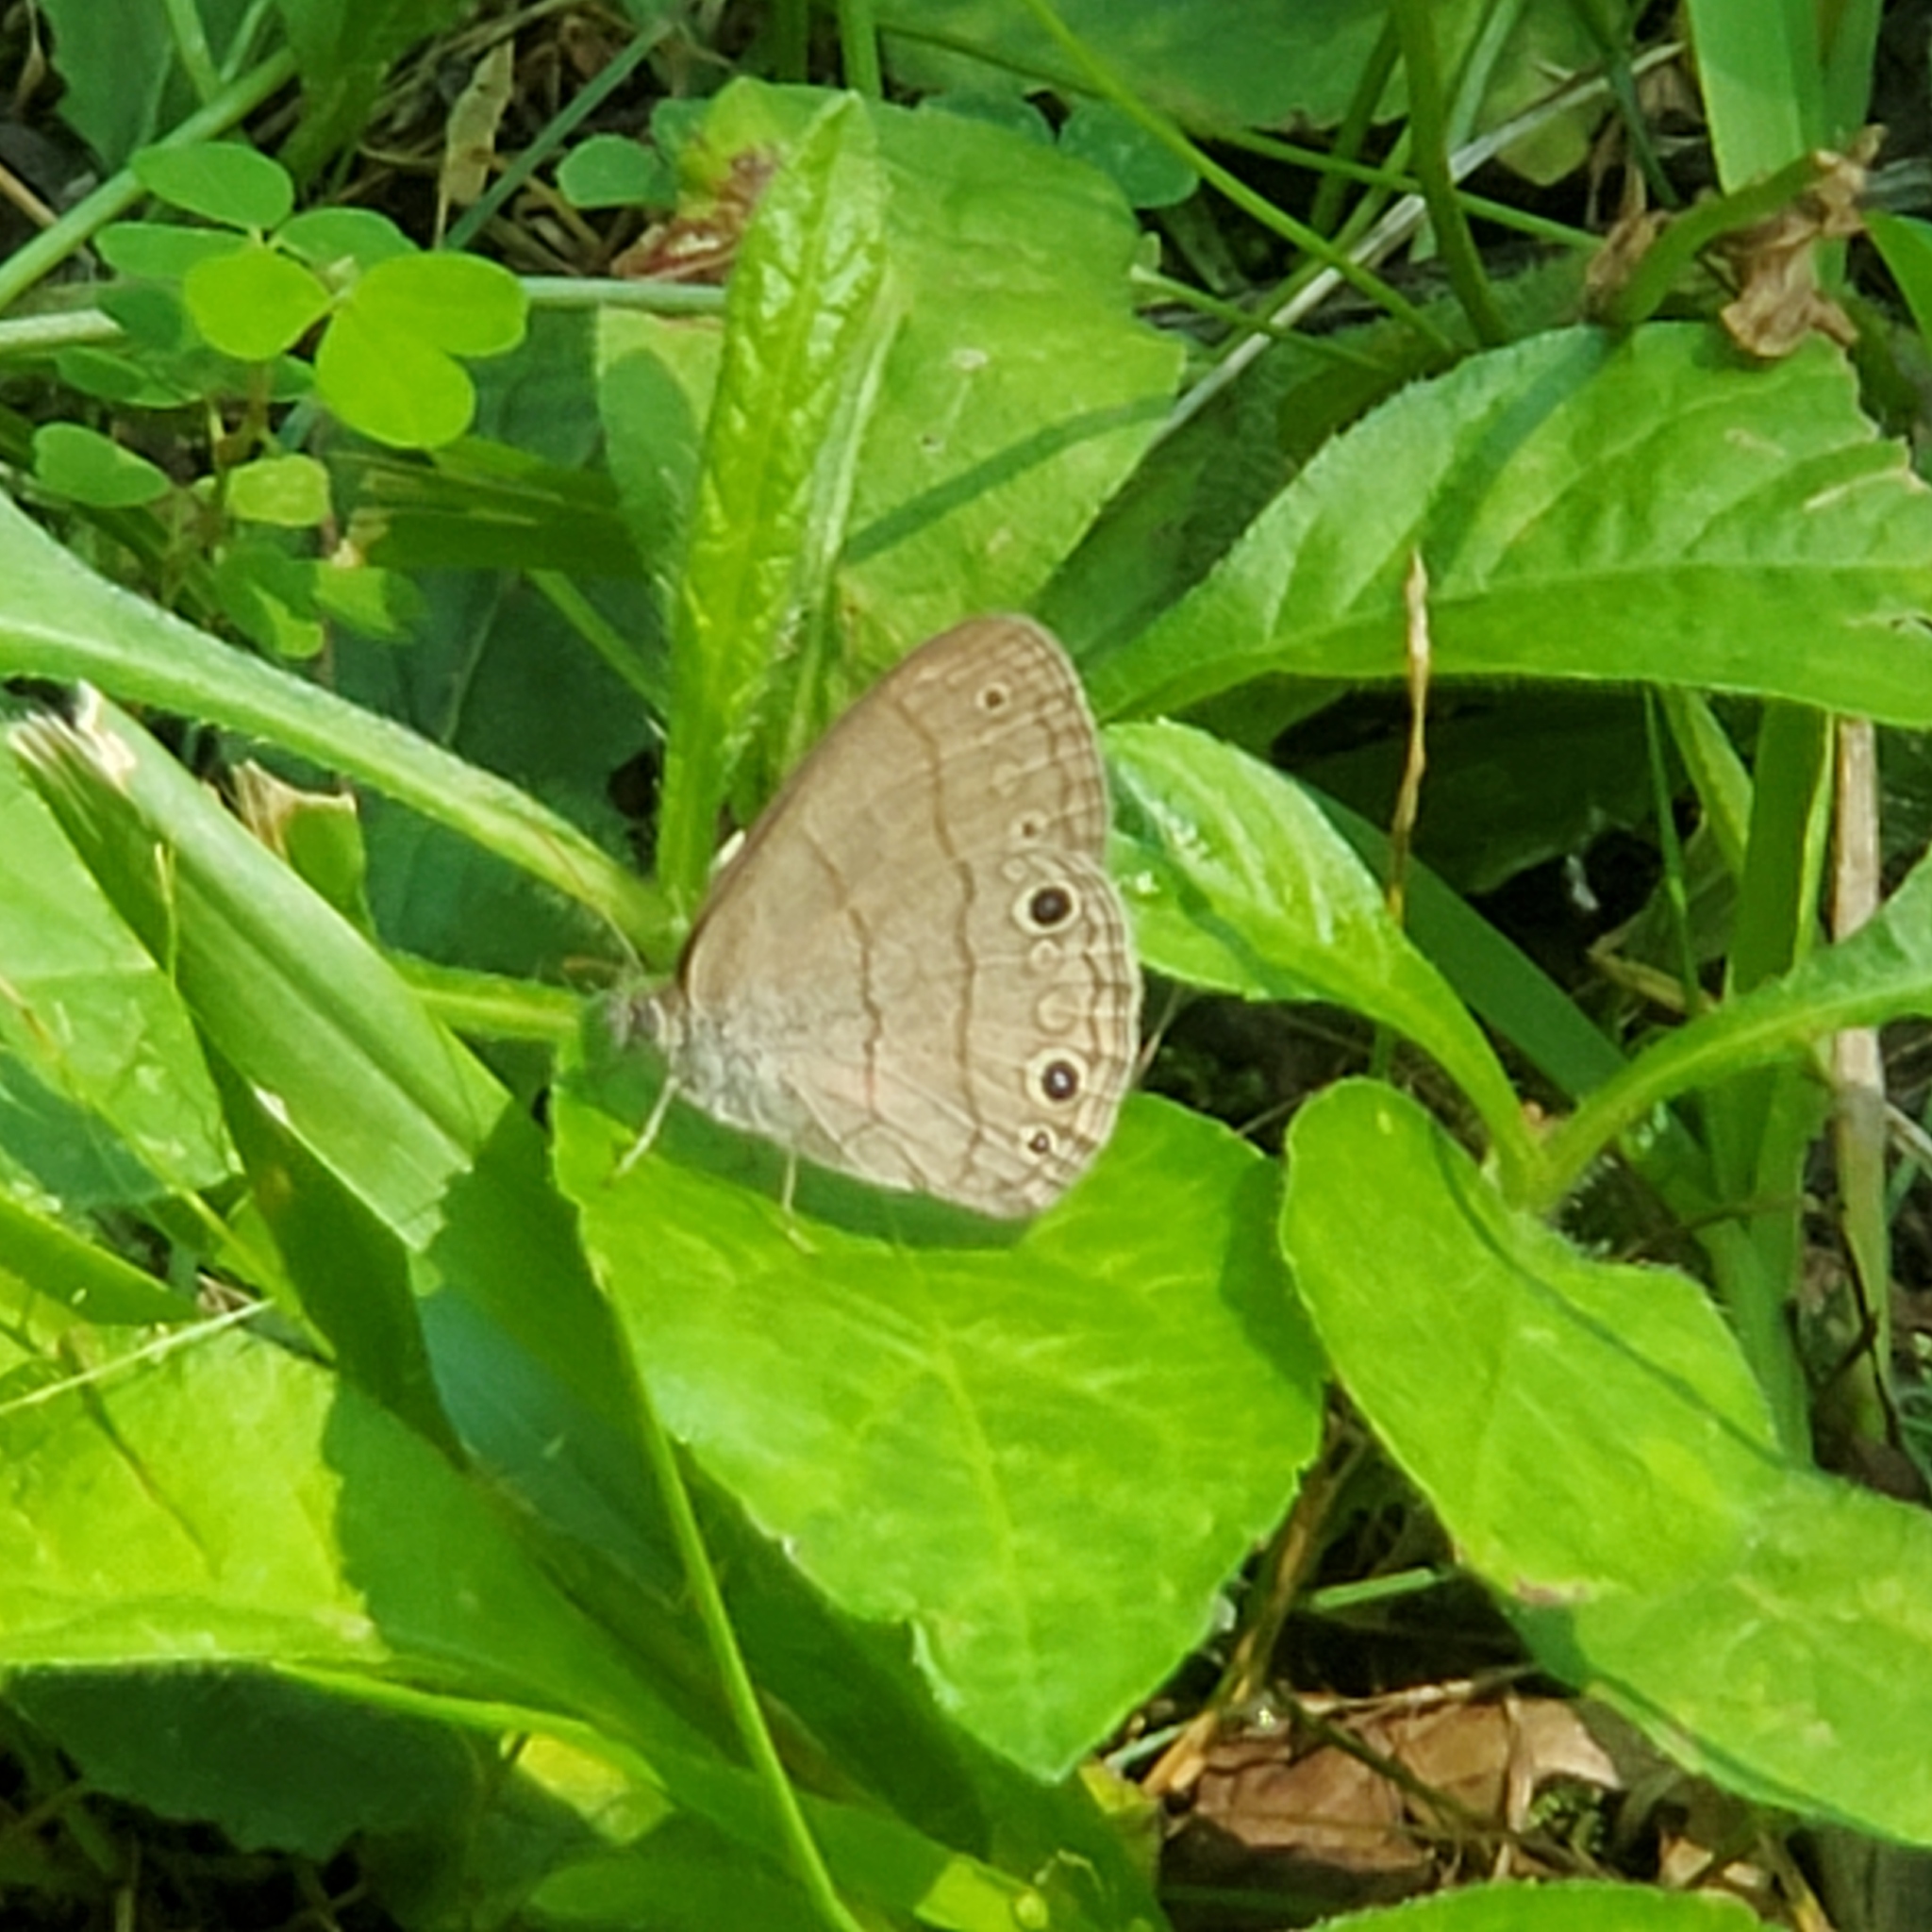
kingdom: Animalia
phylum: Arthropoda
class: Insecta
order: Lepidoptera
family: Nymphalidae
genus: Hermeuptychia
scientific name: Hermeuptychia hermes
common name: Hermes satyr
